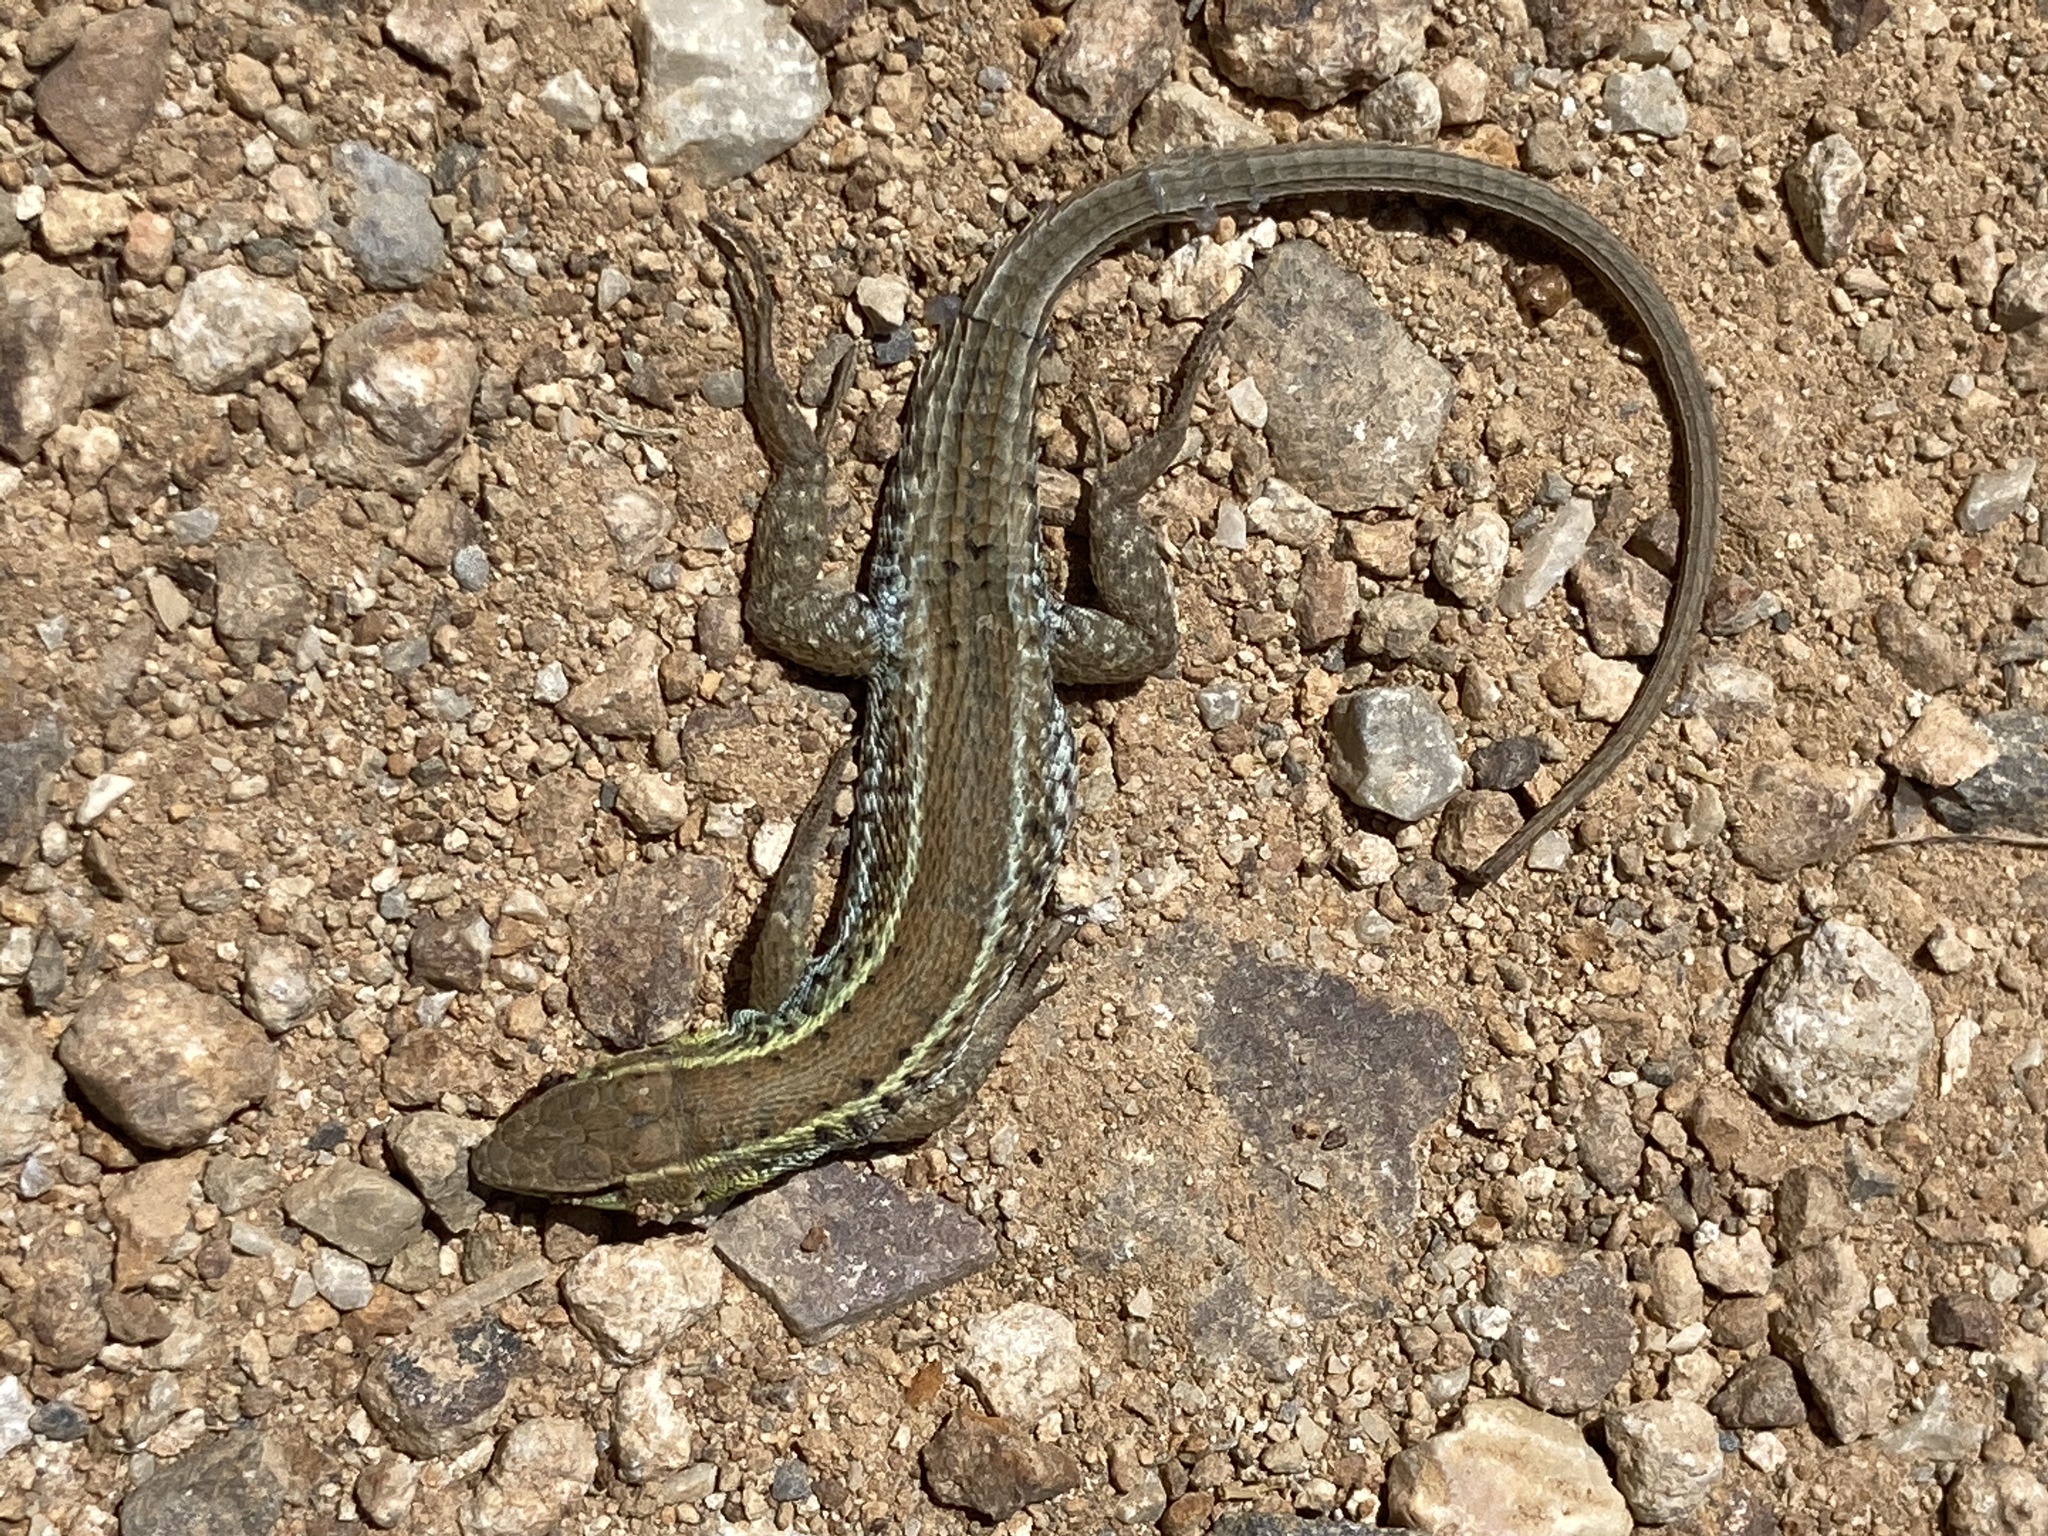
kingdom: Animalia
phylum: Chordata
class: Squamata
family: Lacertidae
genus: Ophisops
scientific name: Ophisops elegans
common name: Snake-eyed lizard
